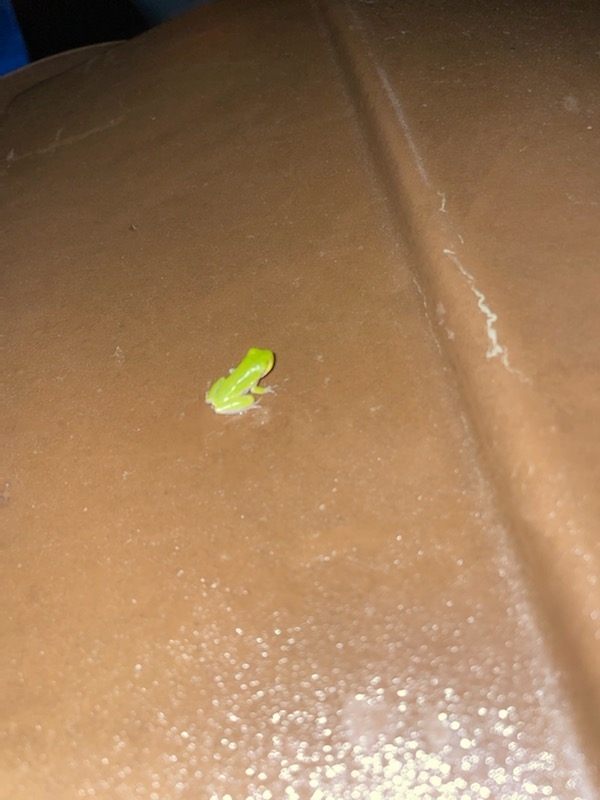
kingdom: Animalia
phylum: Chordata
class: Amphibia
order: Anura
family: Hylidae
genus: Dryophytes
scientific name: Dryophytes squirellus
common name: Squirrel treefrog
